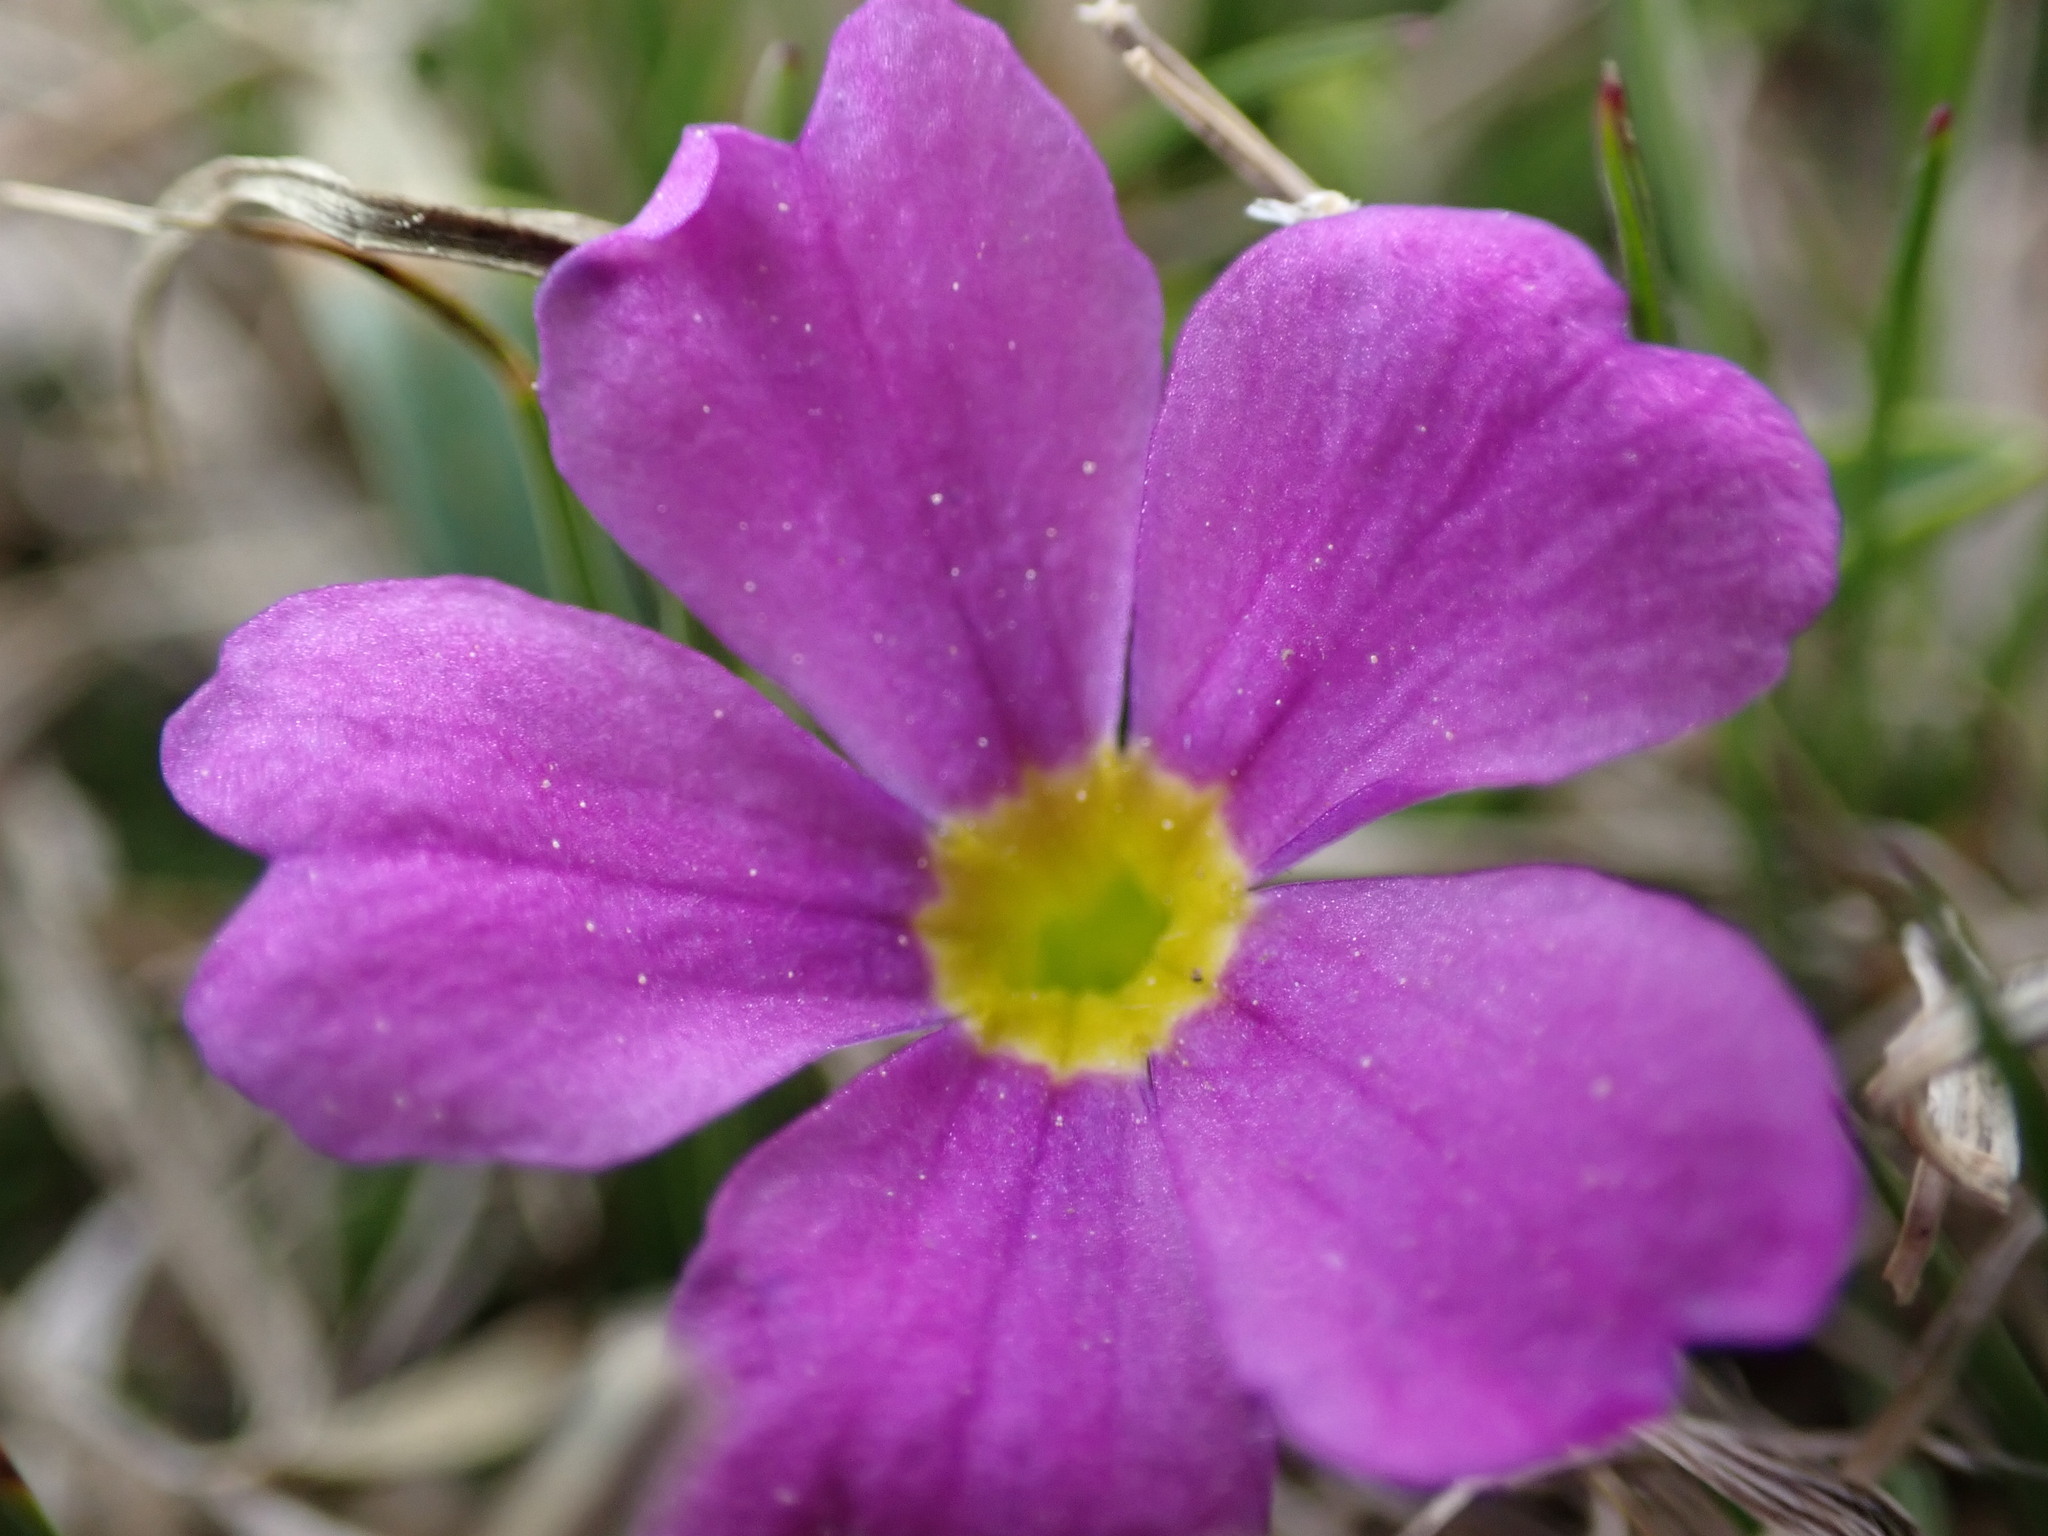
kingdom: Plantae
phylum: Tracheophyta
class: Magnoliopsida
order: Ericales
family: Primulaceae
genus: Primula
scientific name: Primula angustifolia
